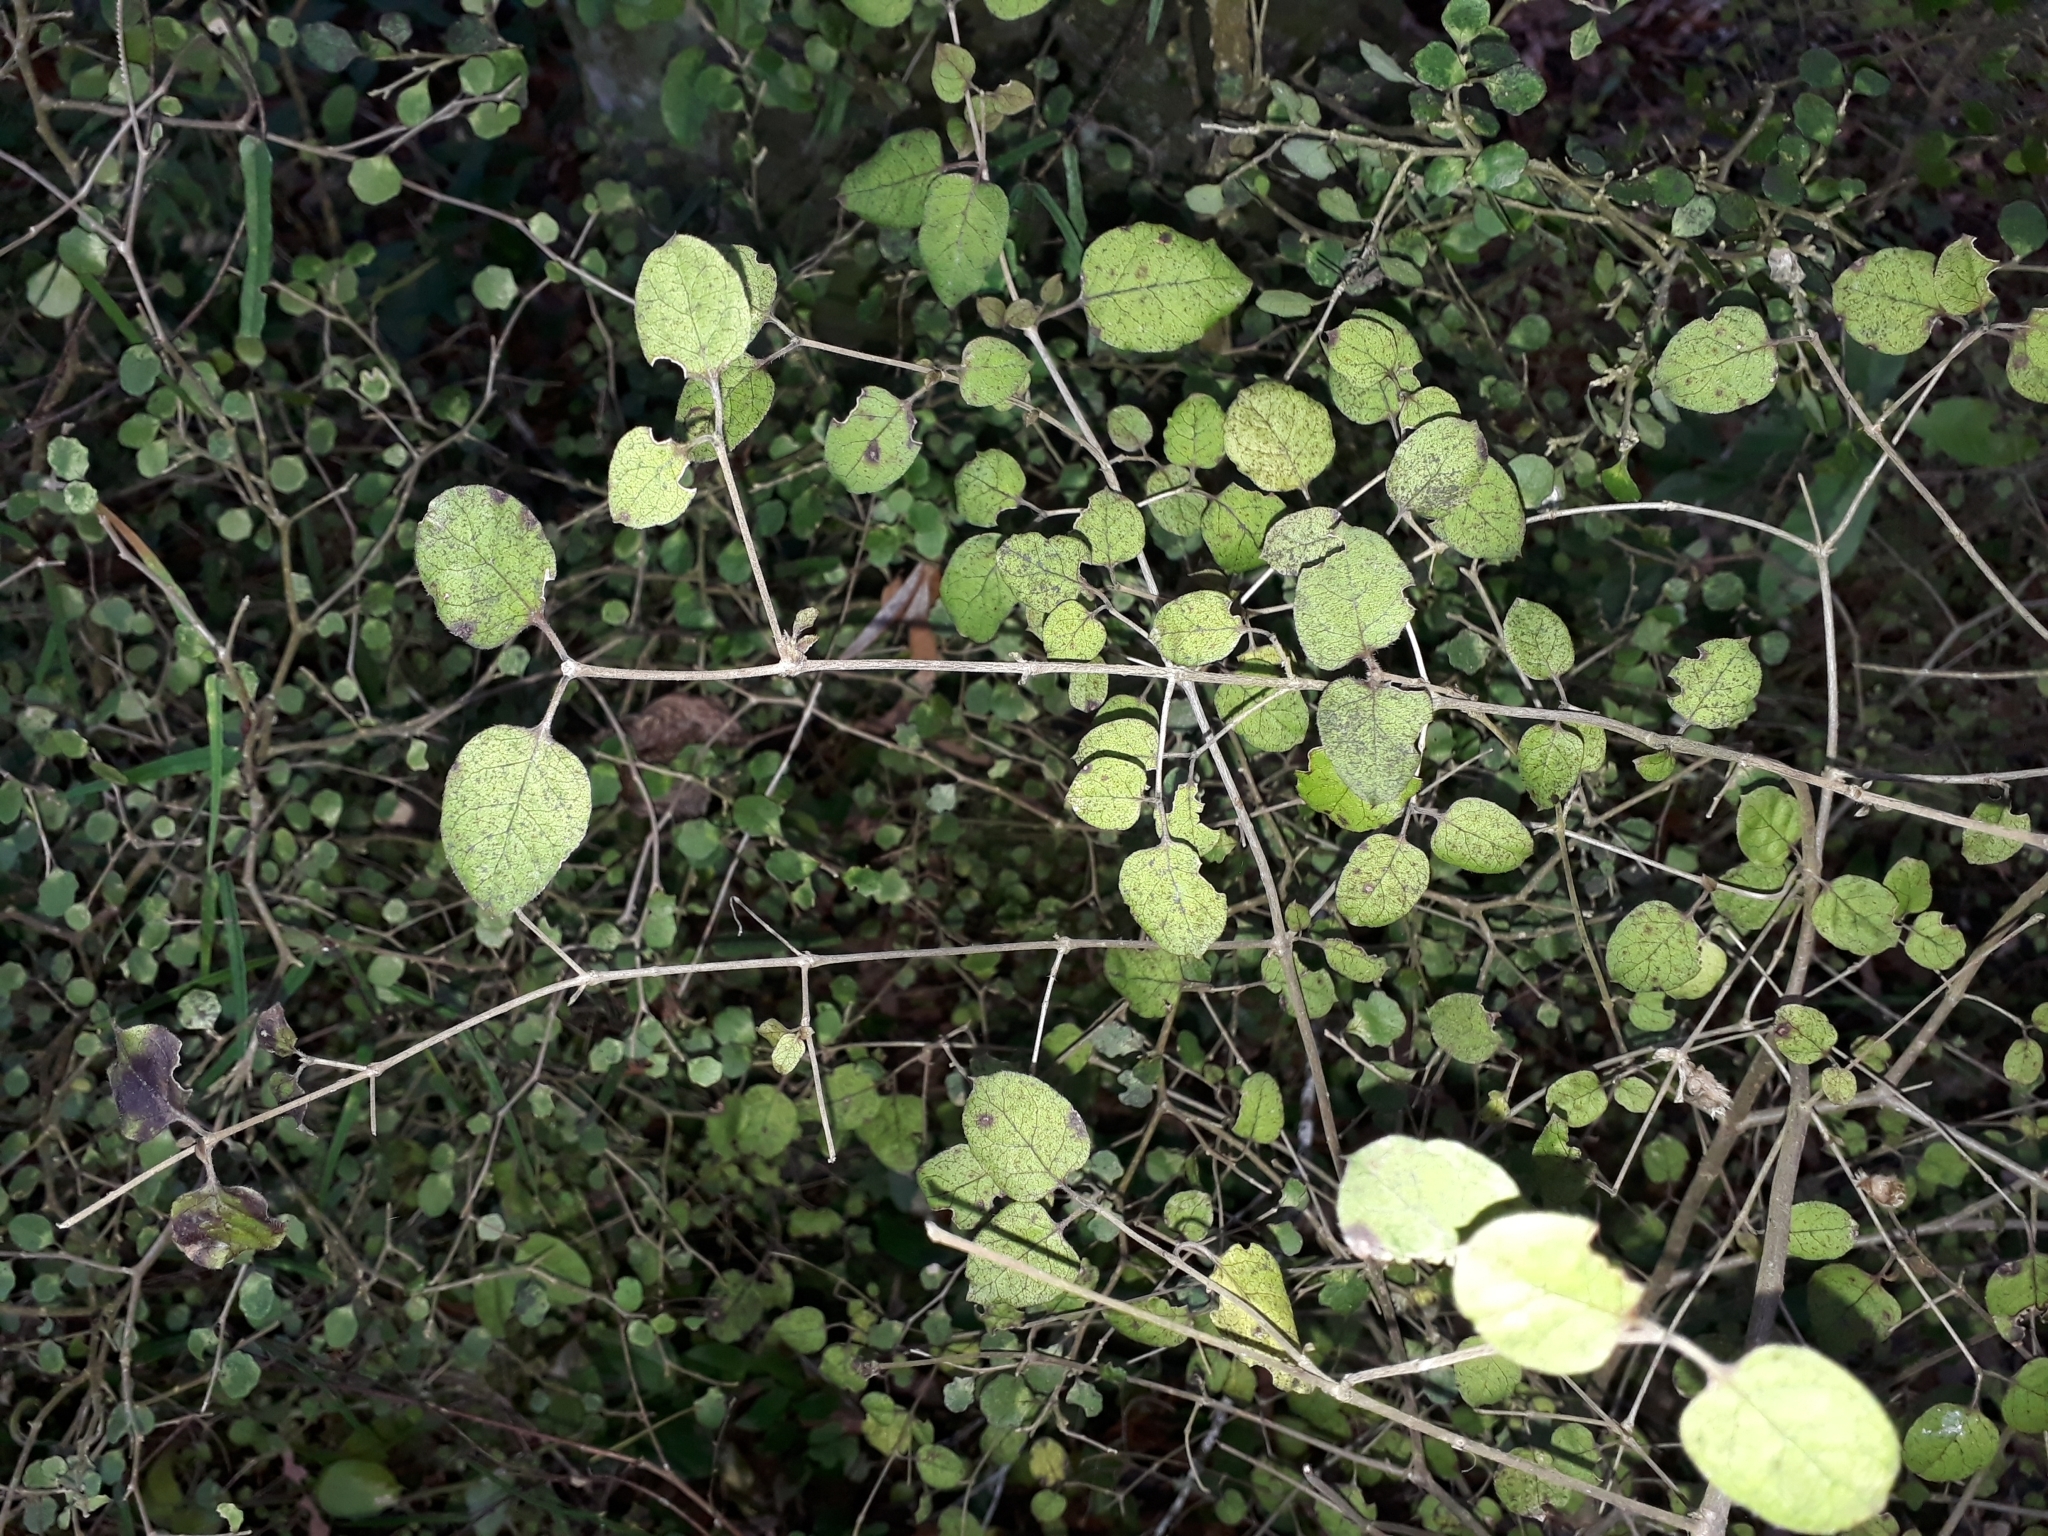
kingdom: Plantae
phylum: Tracheophyta
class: Magnoliopsida
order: Gentianales
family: Rubiaceae
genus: Coprosma
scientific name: Coprosma rotundifolia
